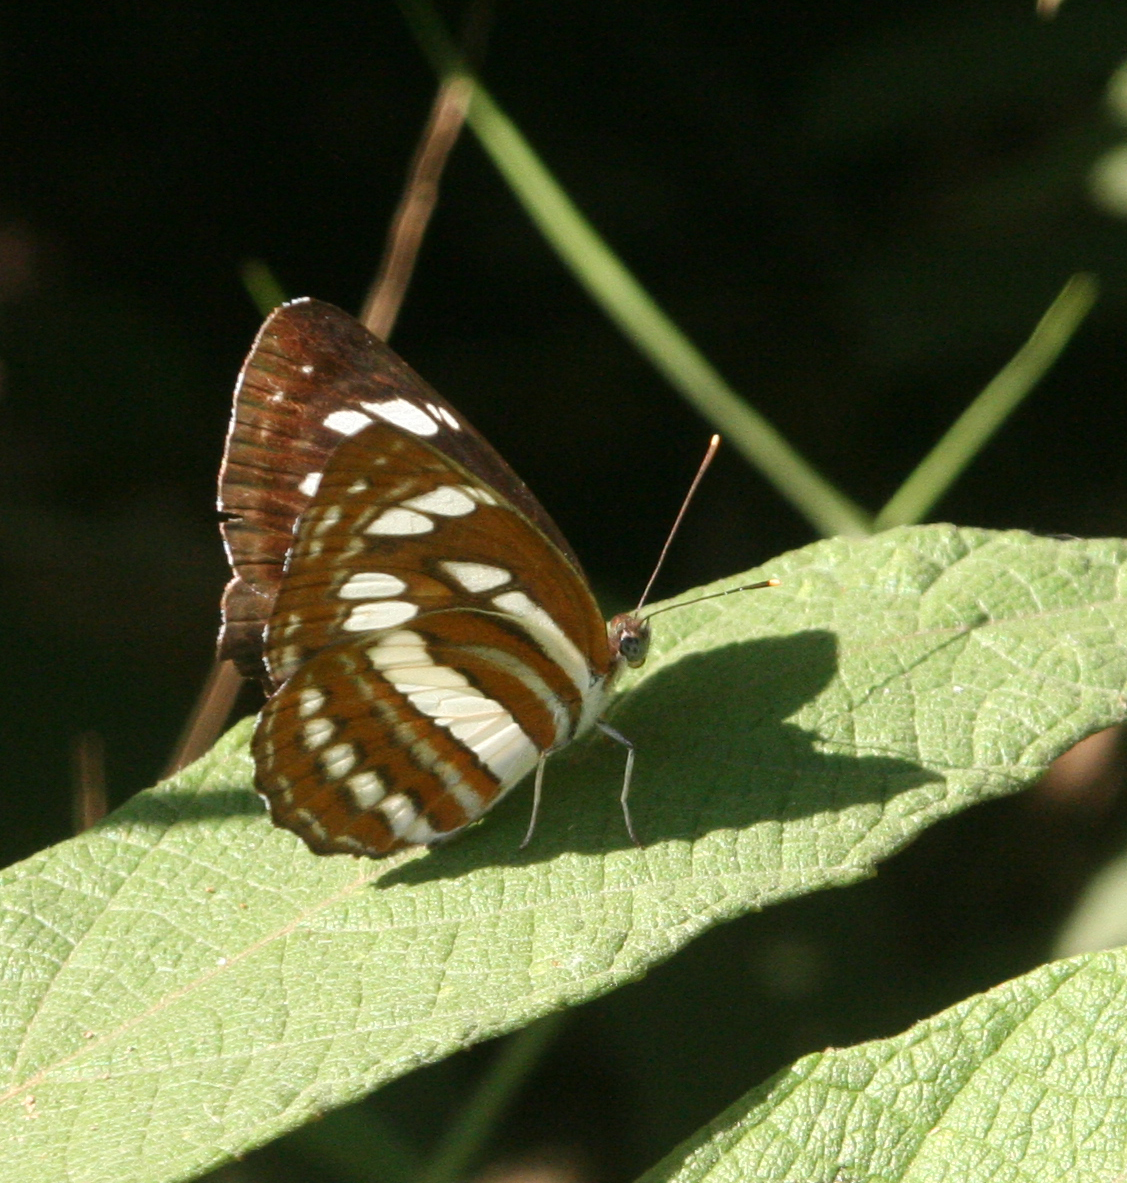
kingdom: Animalia
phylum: Arthropoda
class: Insecta
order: Lepidoptera
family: Nymphalidae
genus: Neptis
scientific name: Neptis hylas
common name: Common sailer
